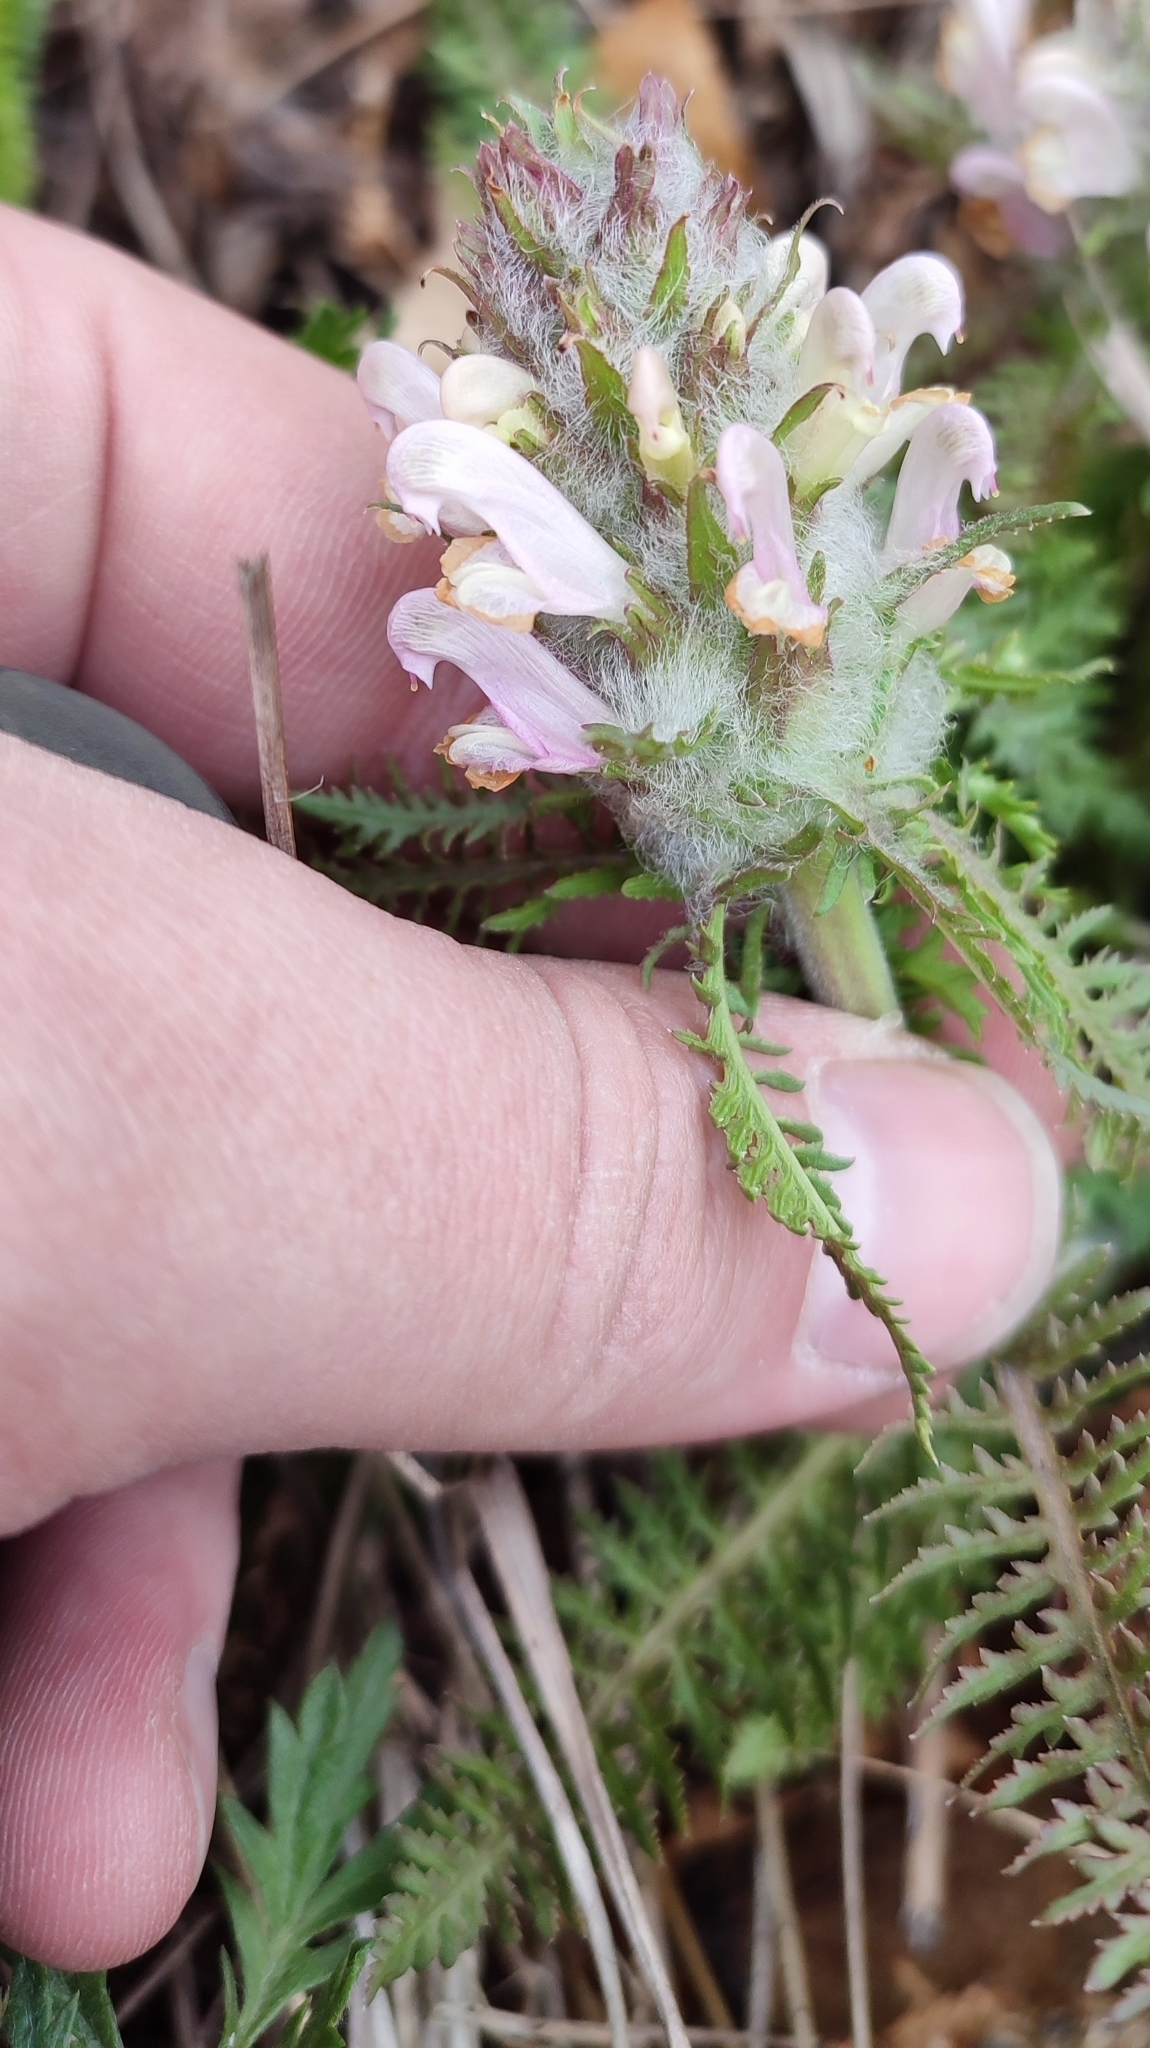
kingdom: Plantae
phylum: Tracheophyta
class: Magnoliopsida
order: Lamiales
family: Orobanchaceae
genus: Pedicularis
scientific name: Pedicularis dasystachys
